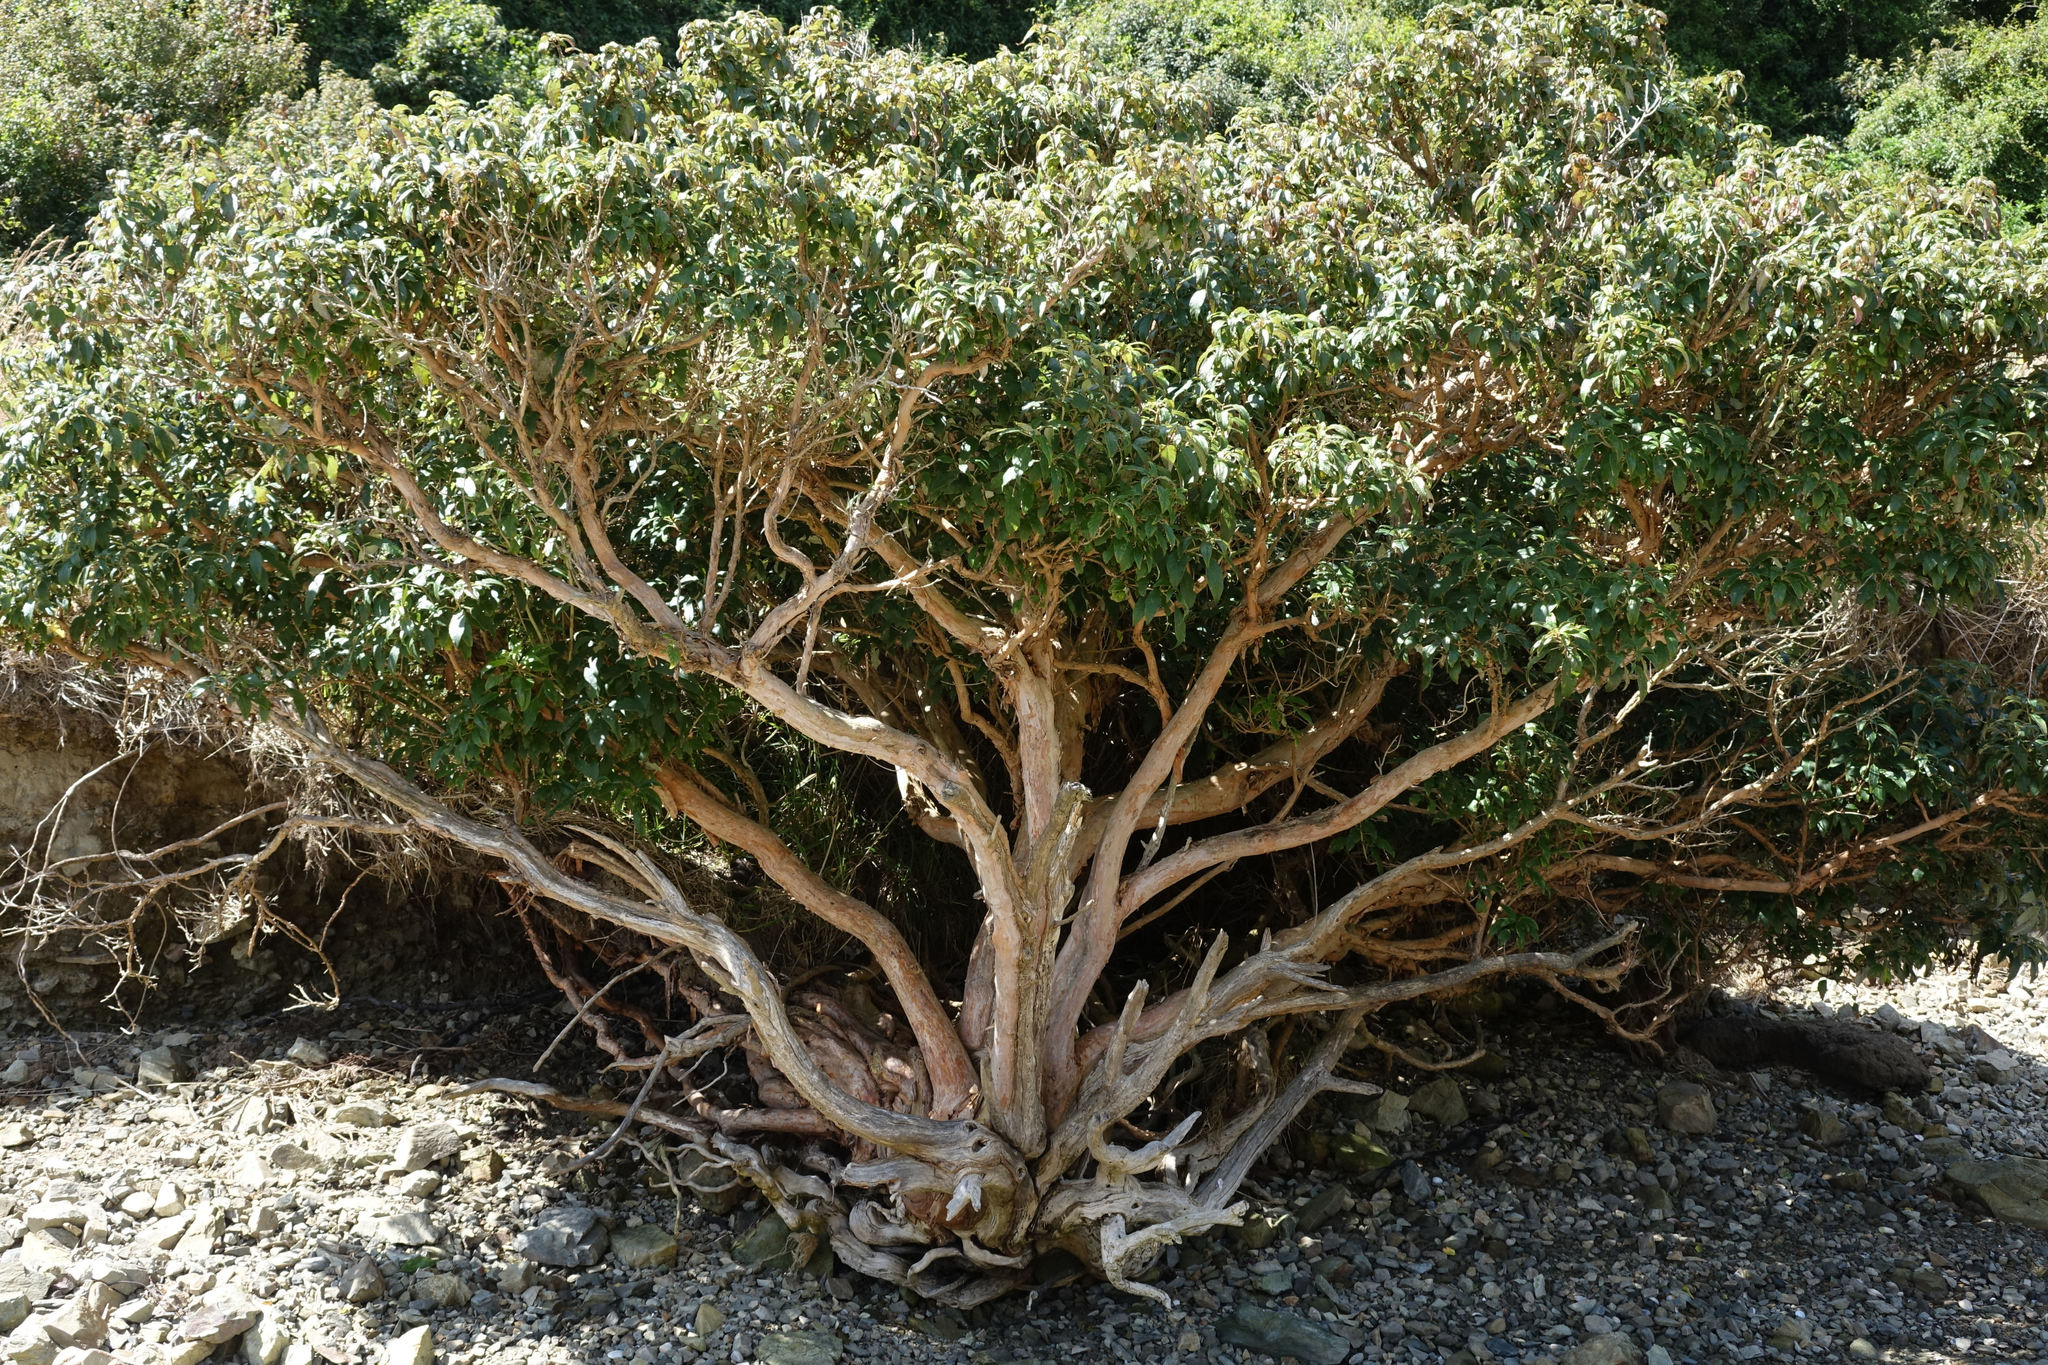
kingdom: Plantae
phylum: Tracheophyta
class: Magnoliopsida
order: Myrtales
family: Onagraceae
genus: Fuchsia
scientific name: Fuchsia excorticata
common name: Tree fuchsia
